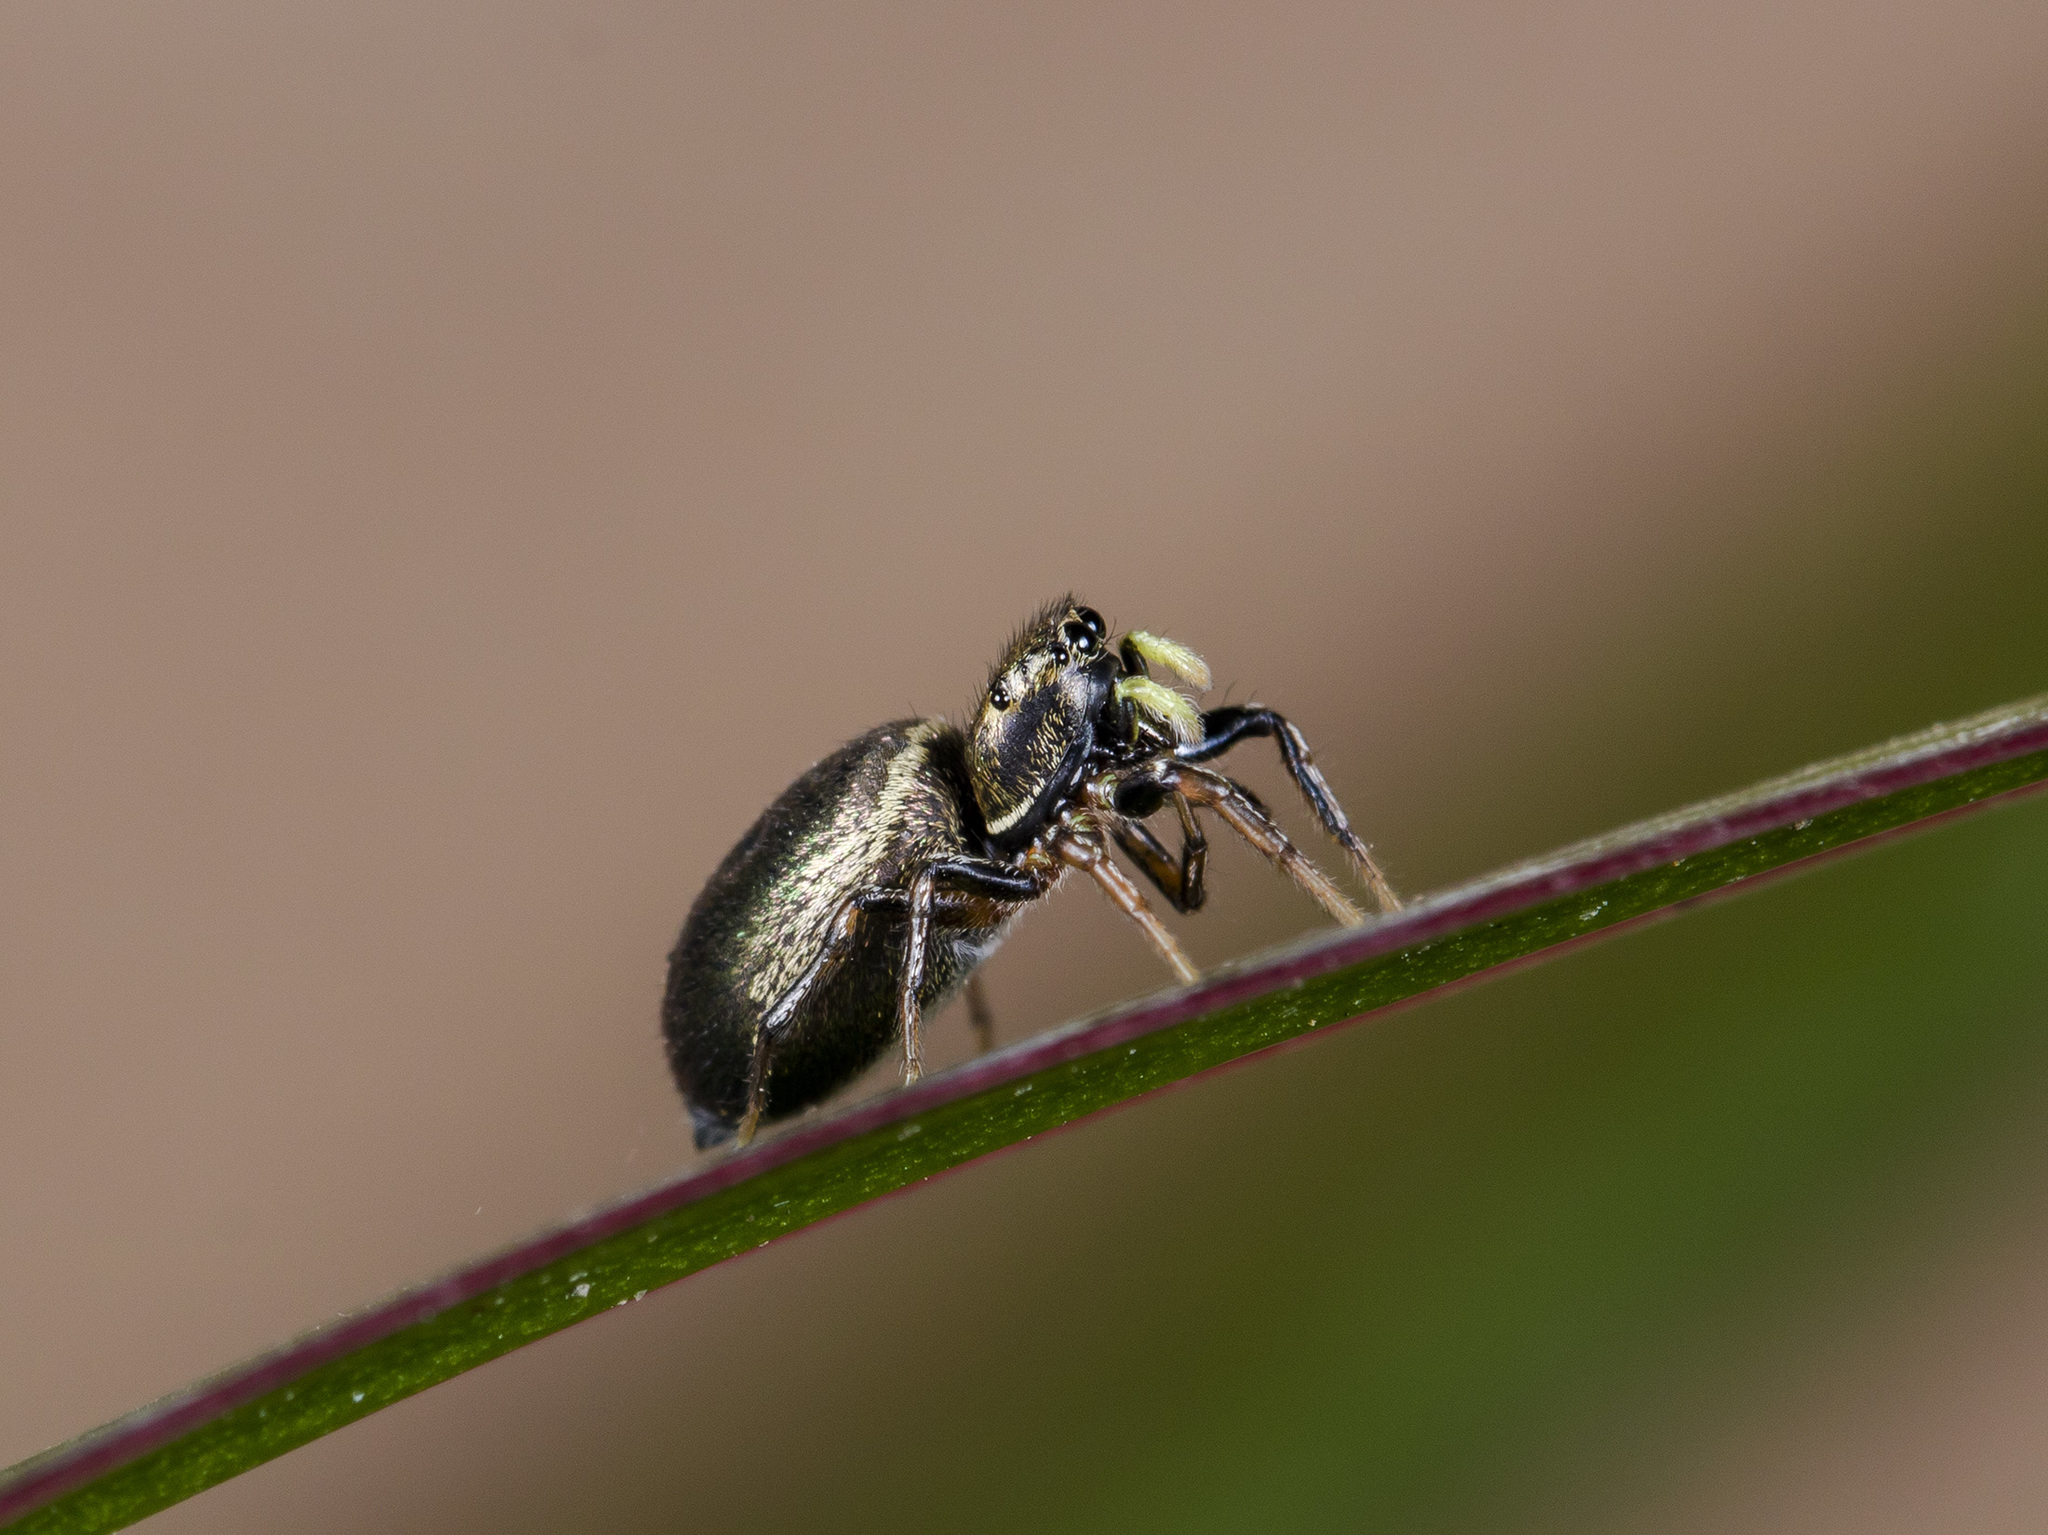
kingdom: Animalia
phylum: Arthropoda
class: Arachnida
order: Araneae
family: Salticidae
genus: Heliophanus
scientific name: Heliophanus auratus
